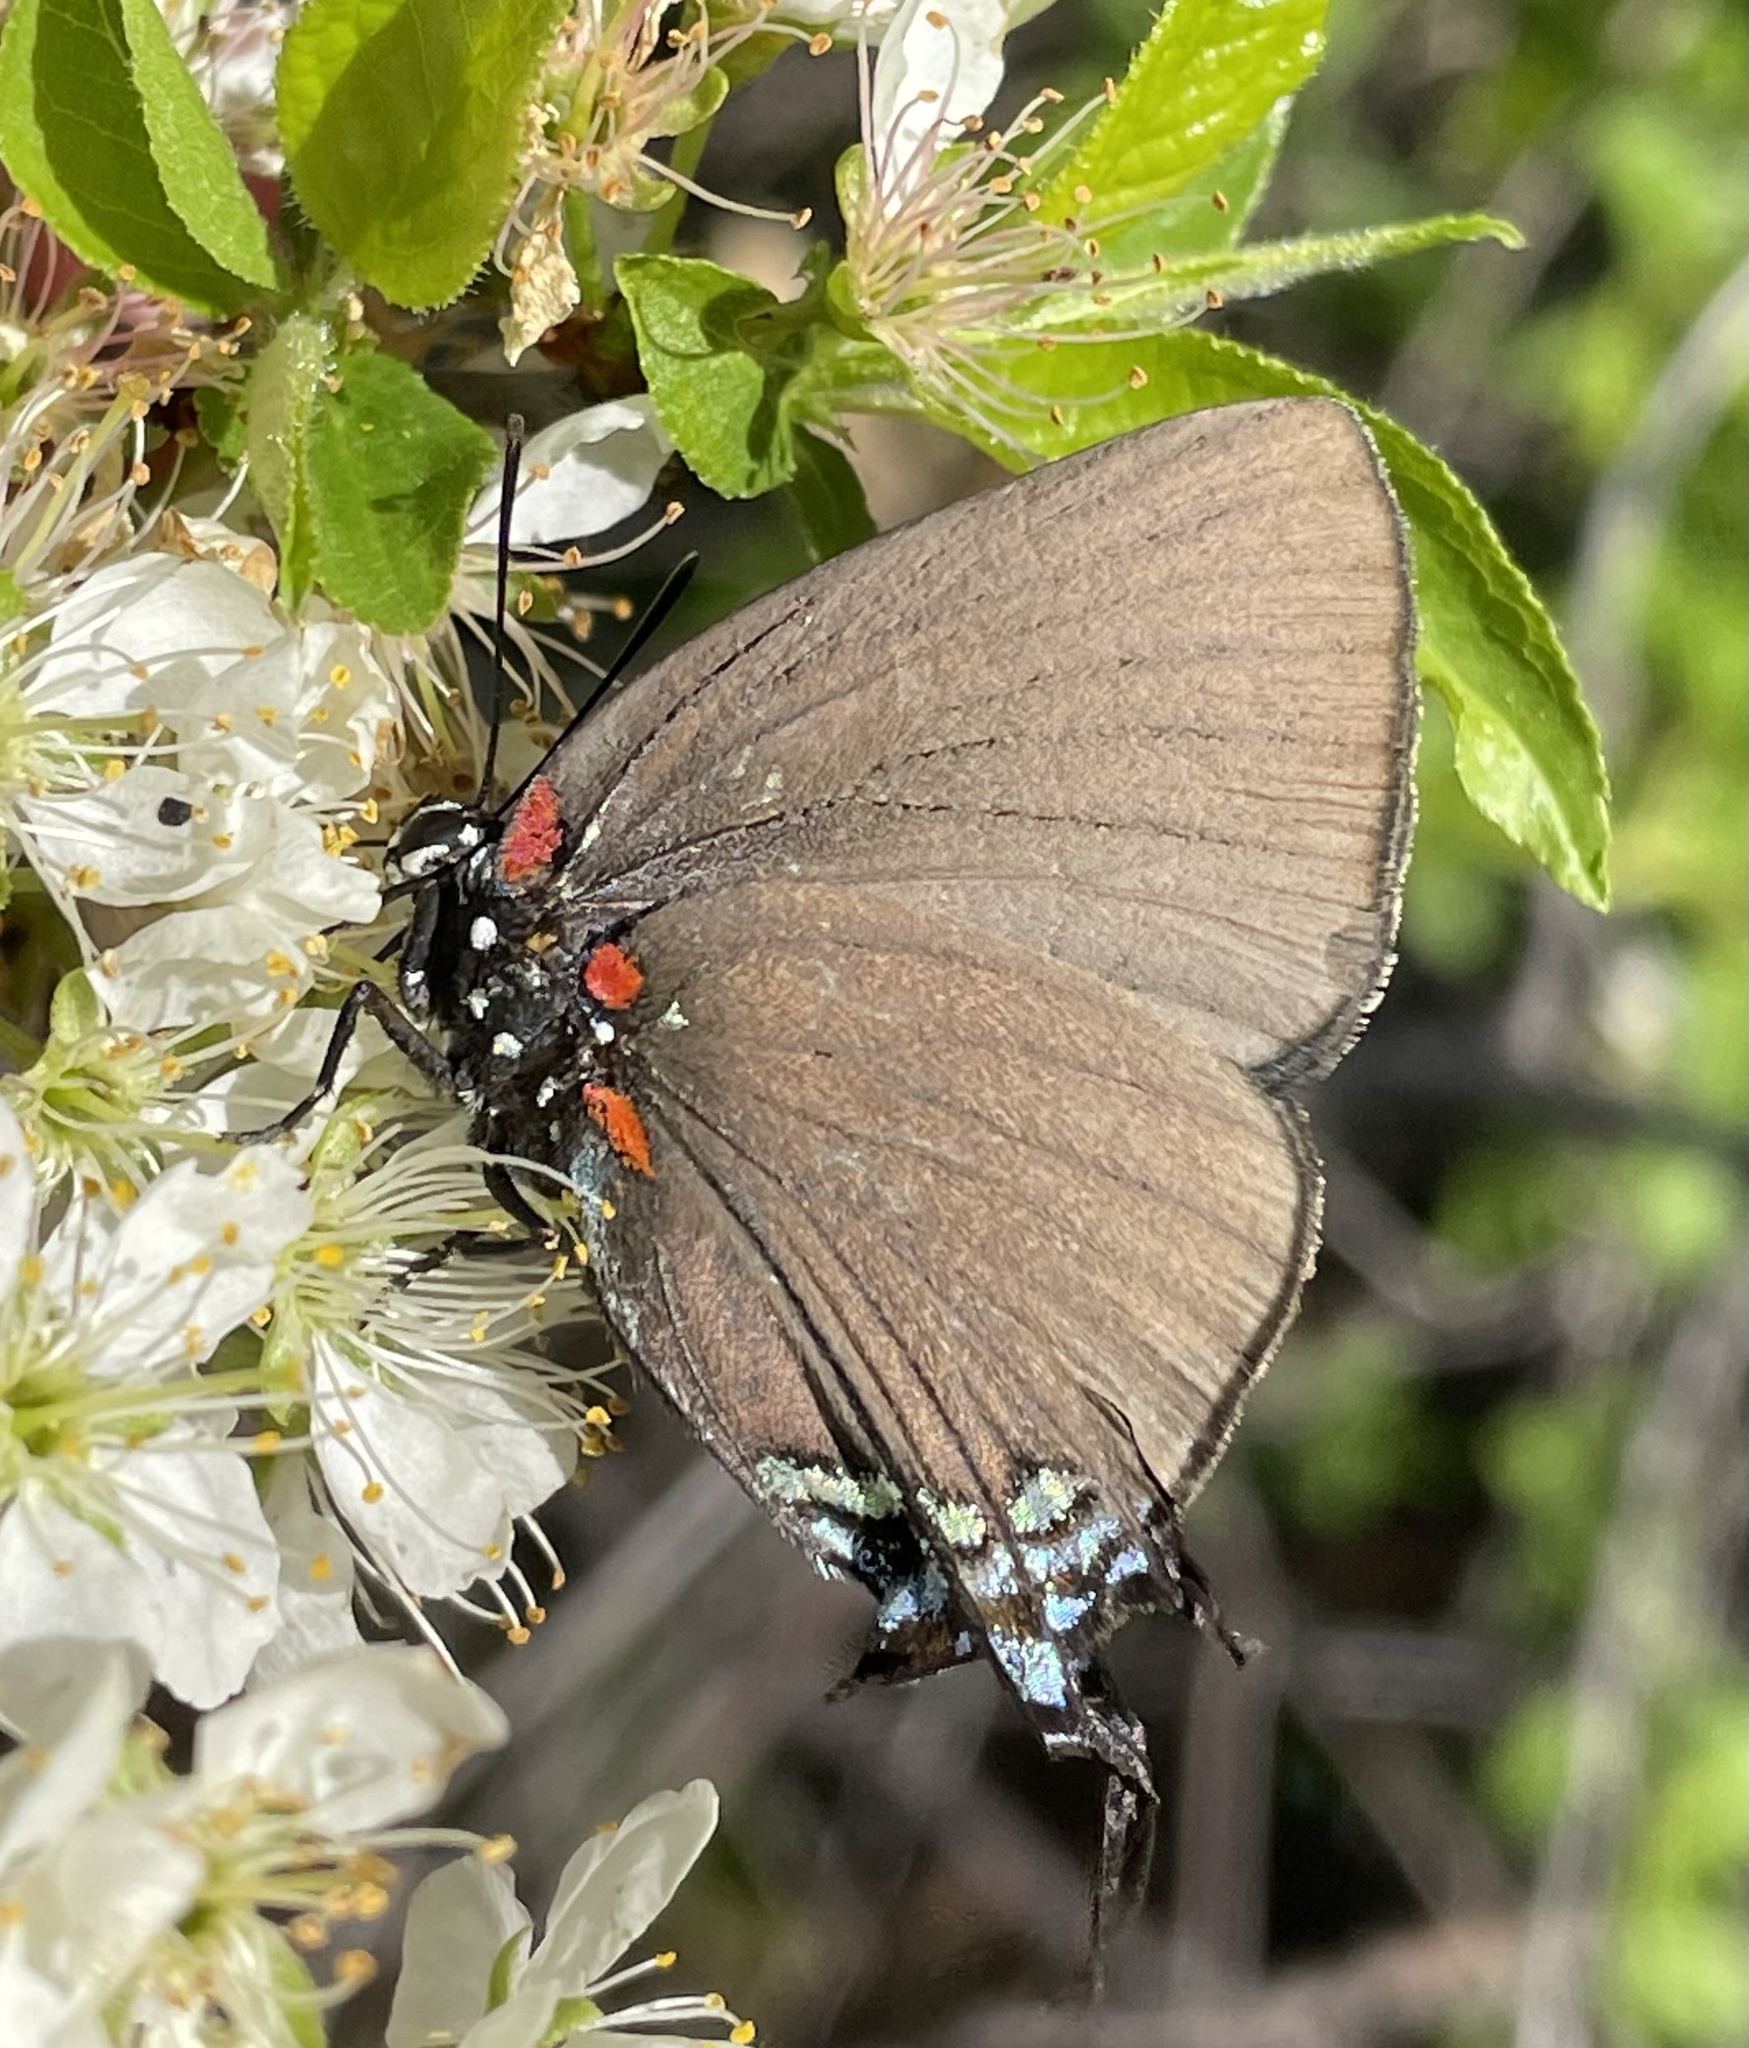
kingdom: Animalia
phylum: Arthropoda
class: Insecta
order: Lepidoptera
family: Lycaenidae
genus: Atlides
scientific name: Atlides halesus
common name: Great purple hairstreak
